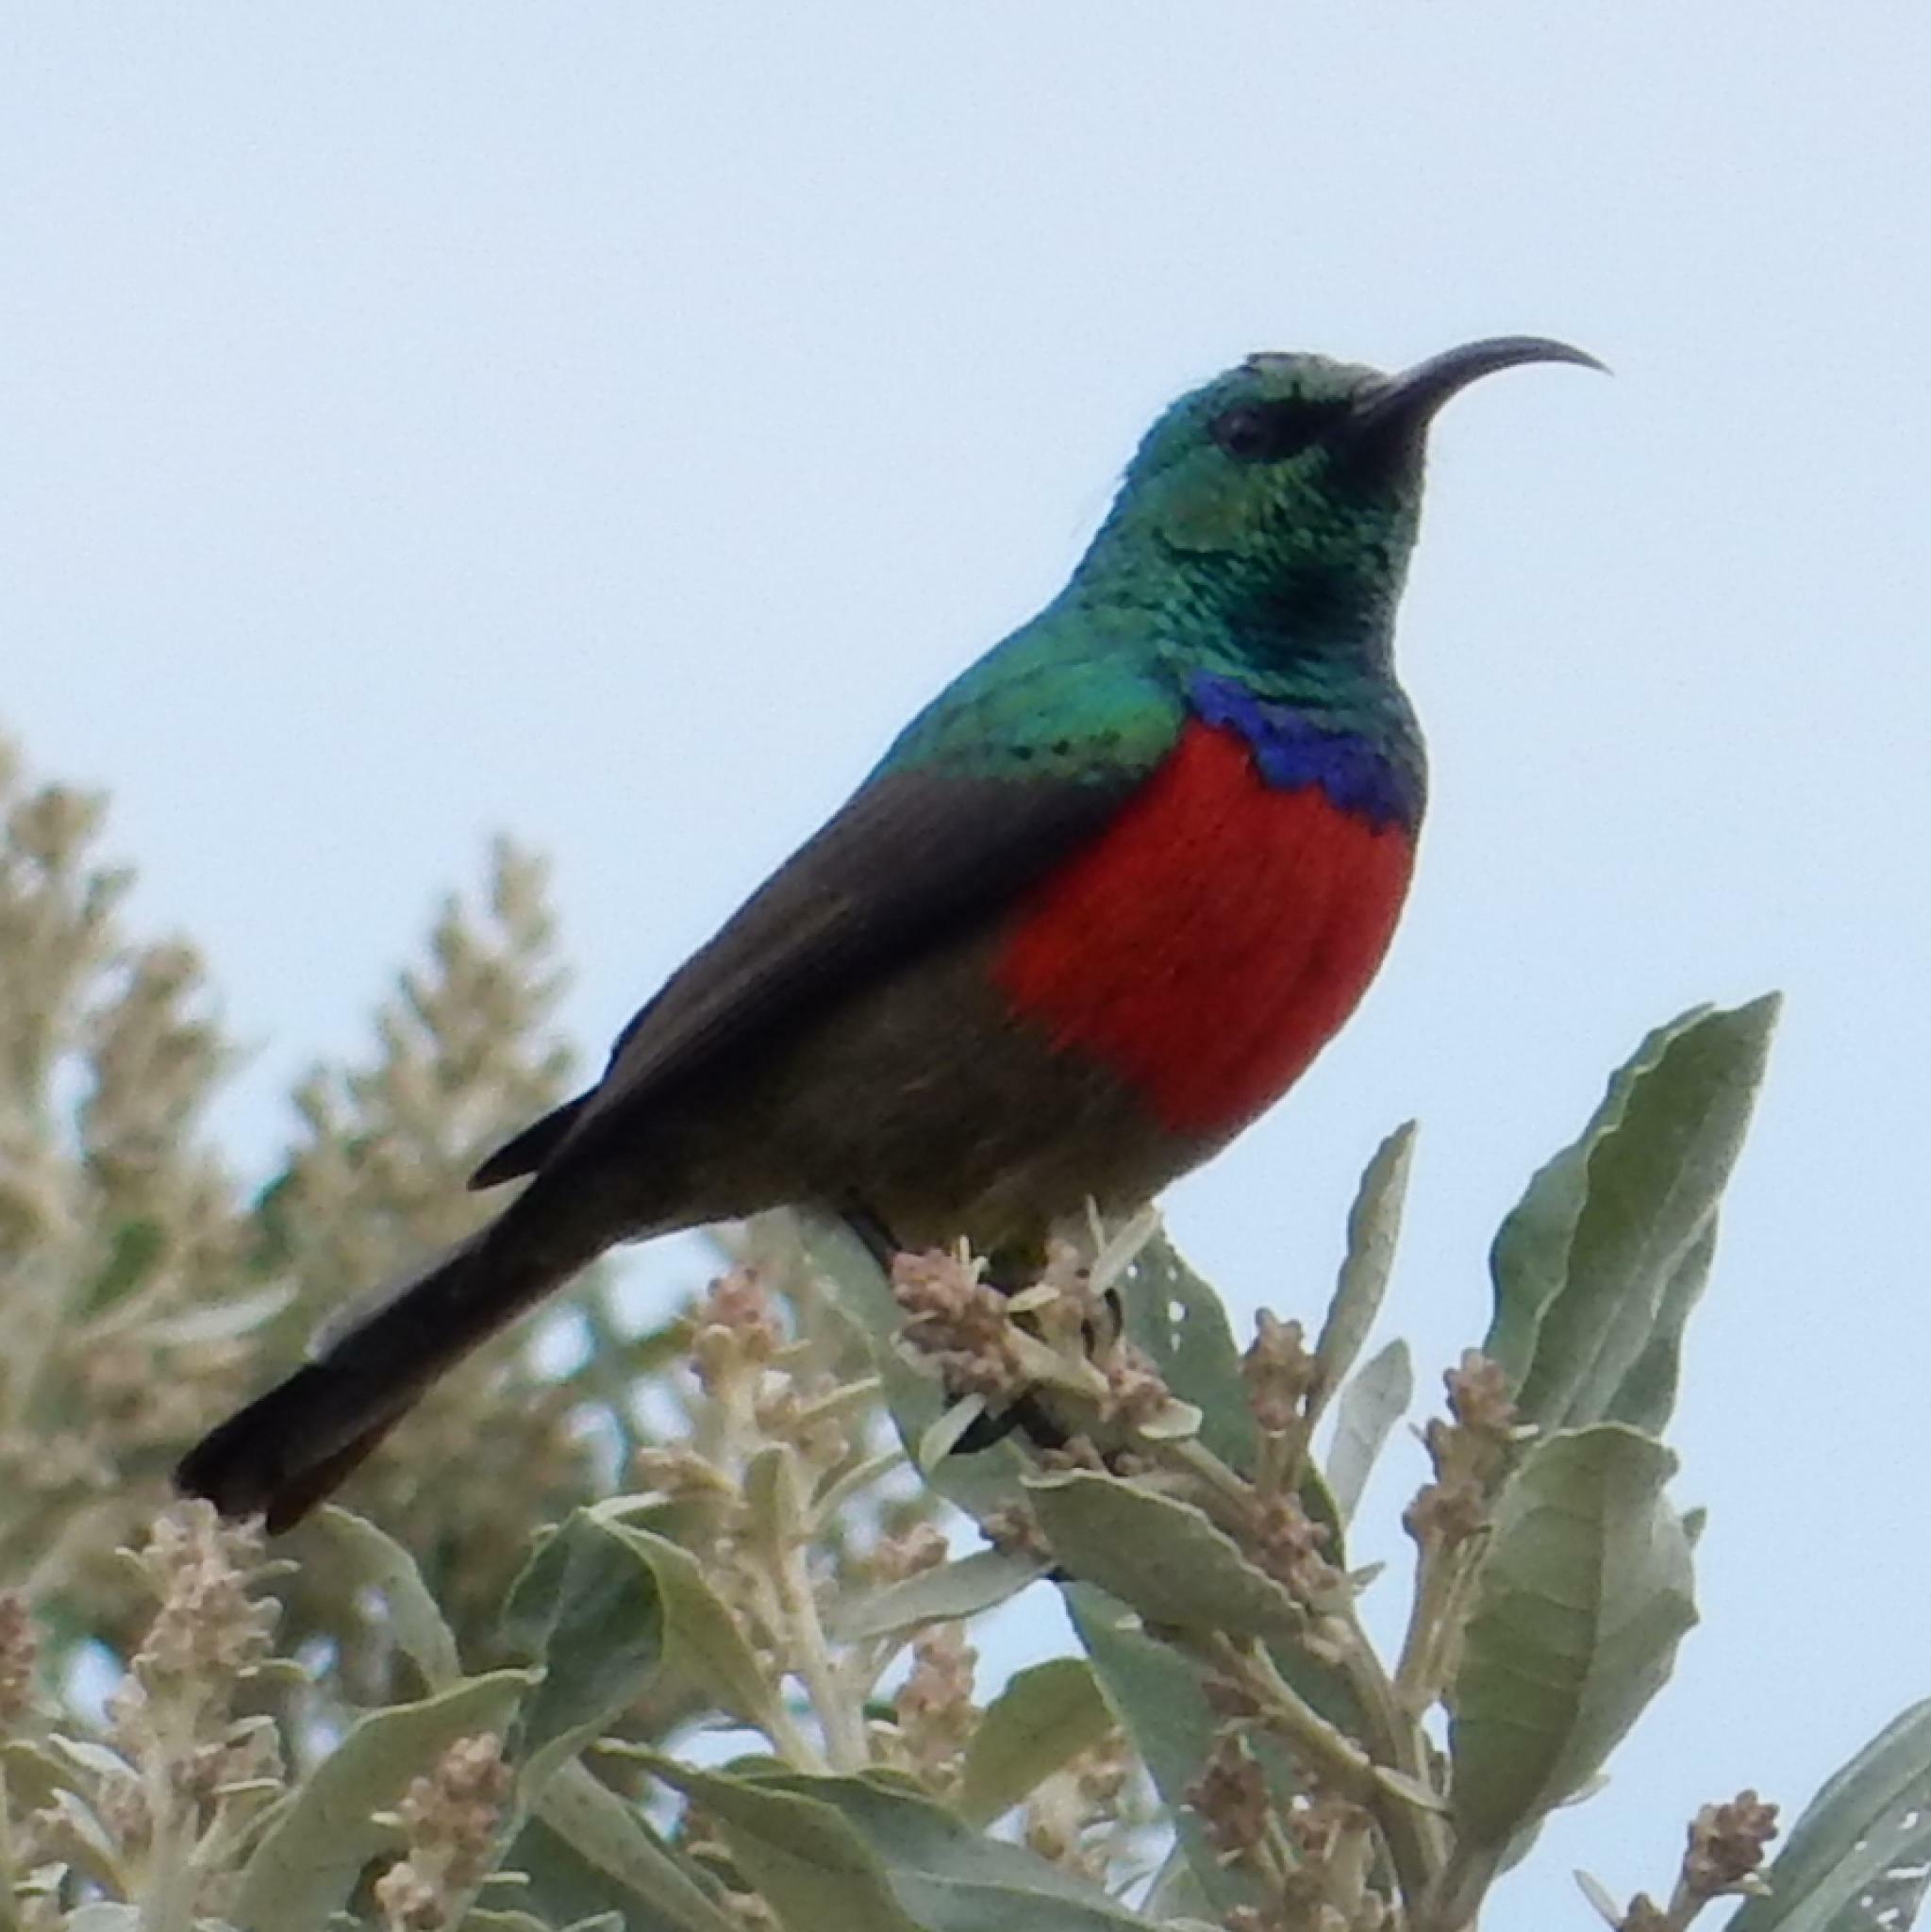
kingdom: Animalia
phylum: Chordata
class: Aves
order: Passeriformes
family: Nectariniidae
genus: Cinnyris
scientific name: Cinnyris afer
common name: Greater double-collared sunbird
